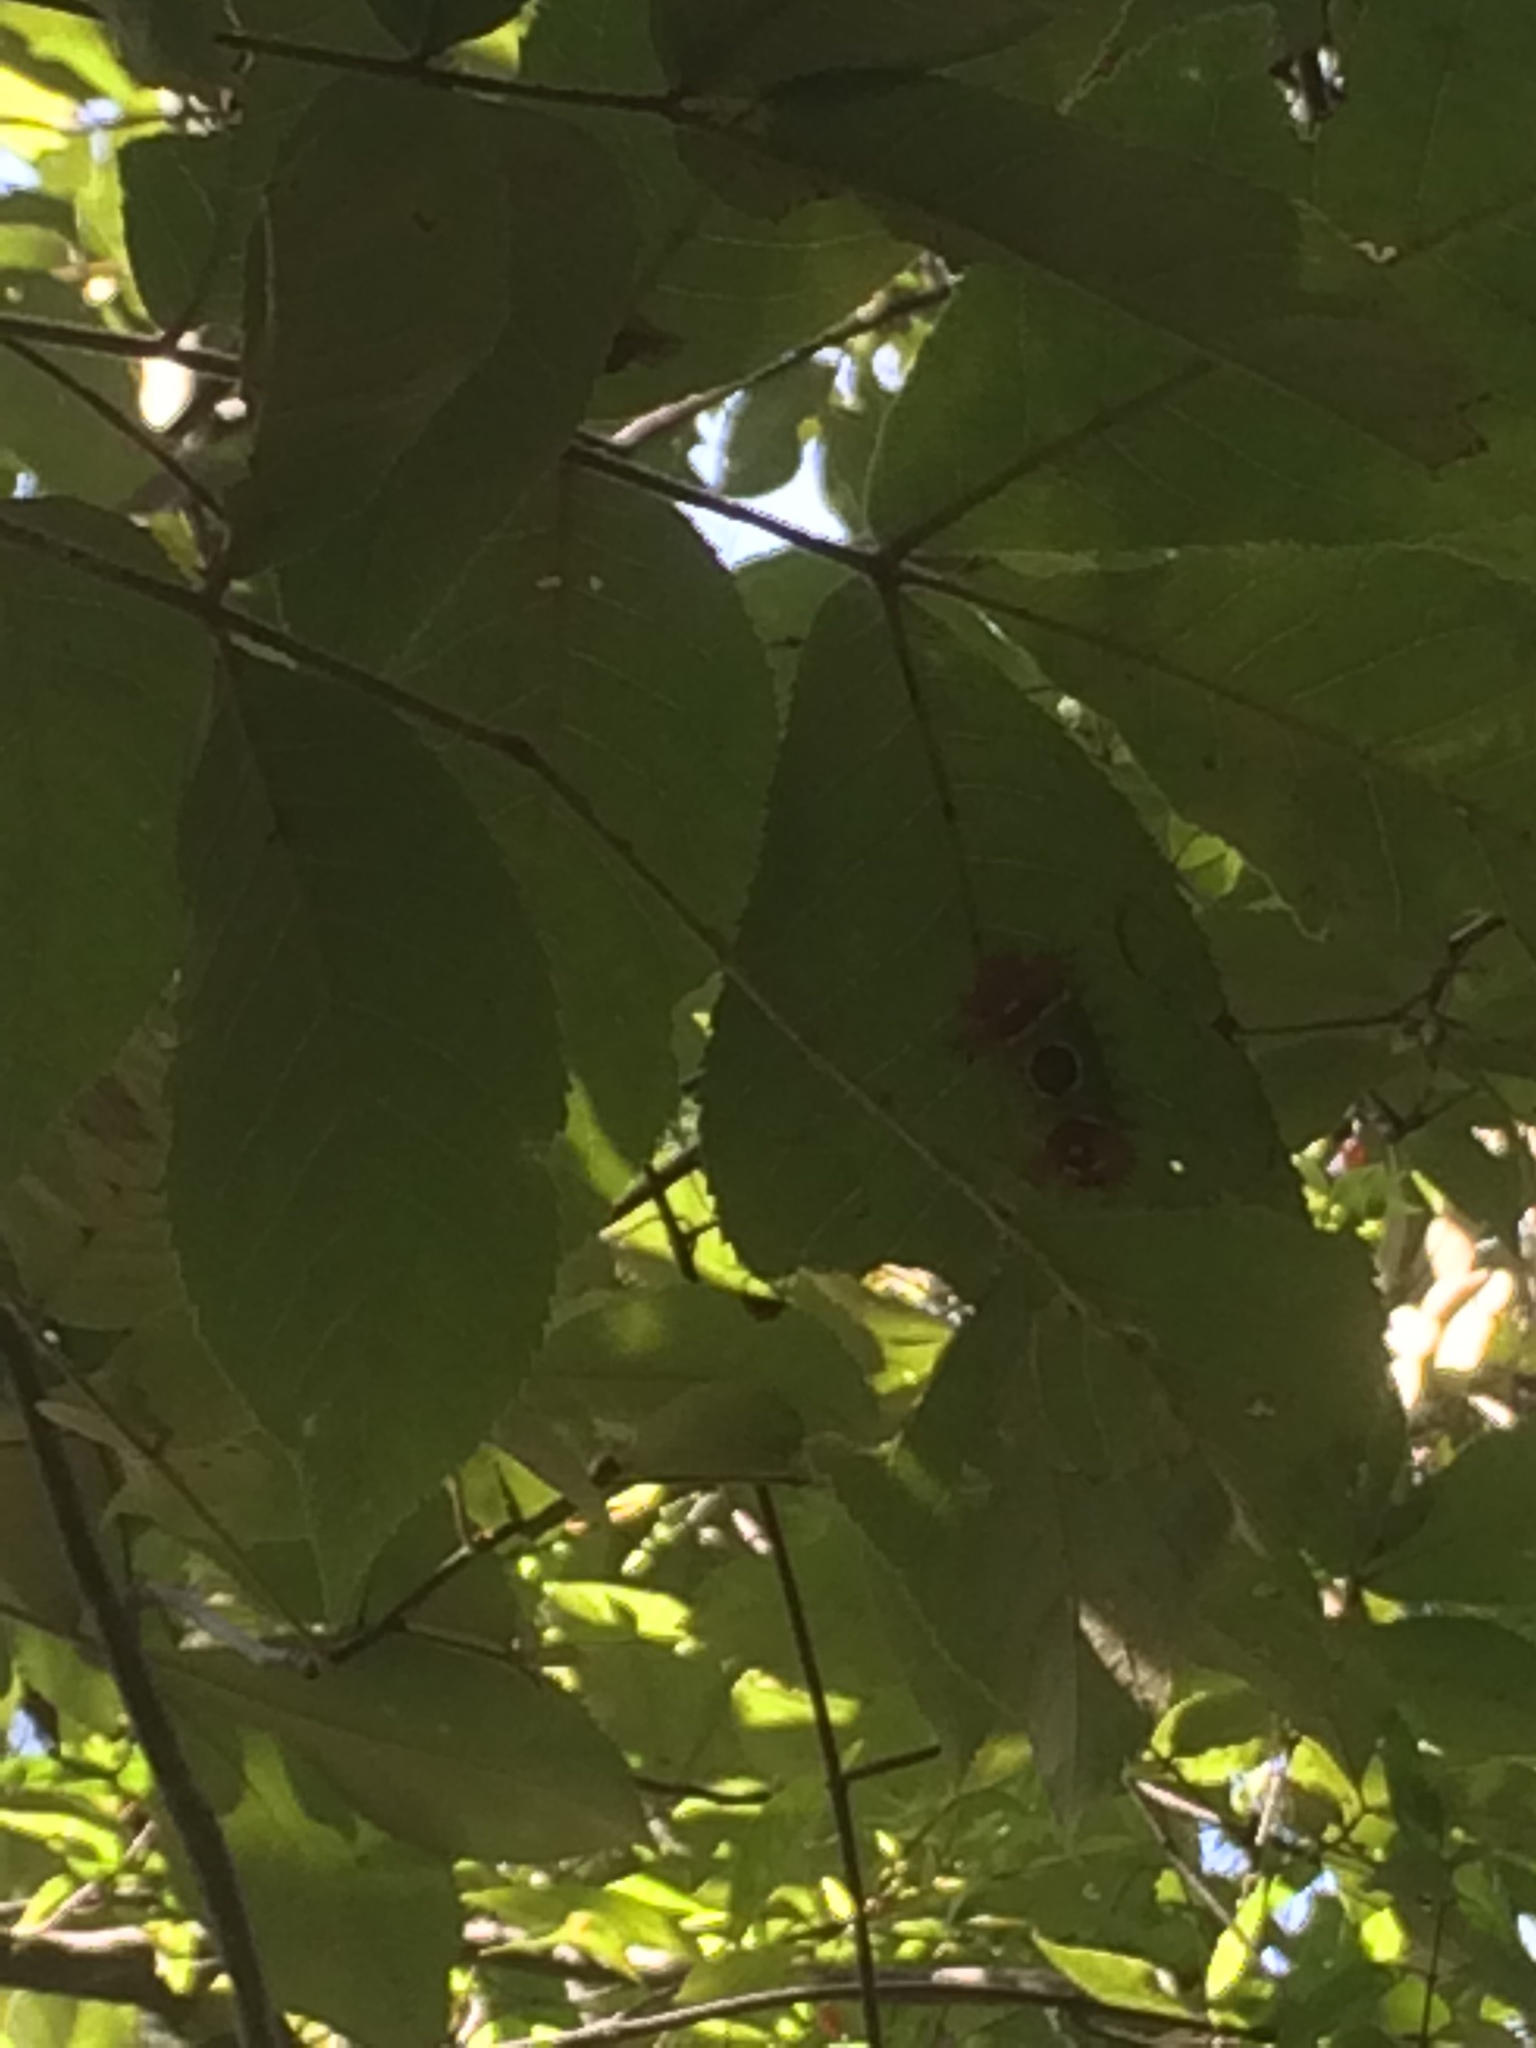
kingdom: Animalia
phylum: Arthropoda
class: Insecta
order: Lepidoptera
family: Limacodidae
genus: Acharia
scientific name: Acharia stimulea
